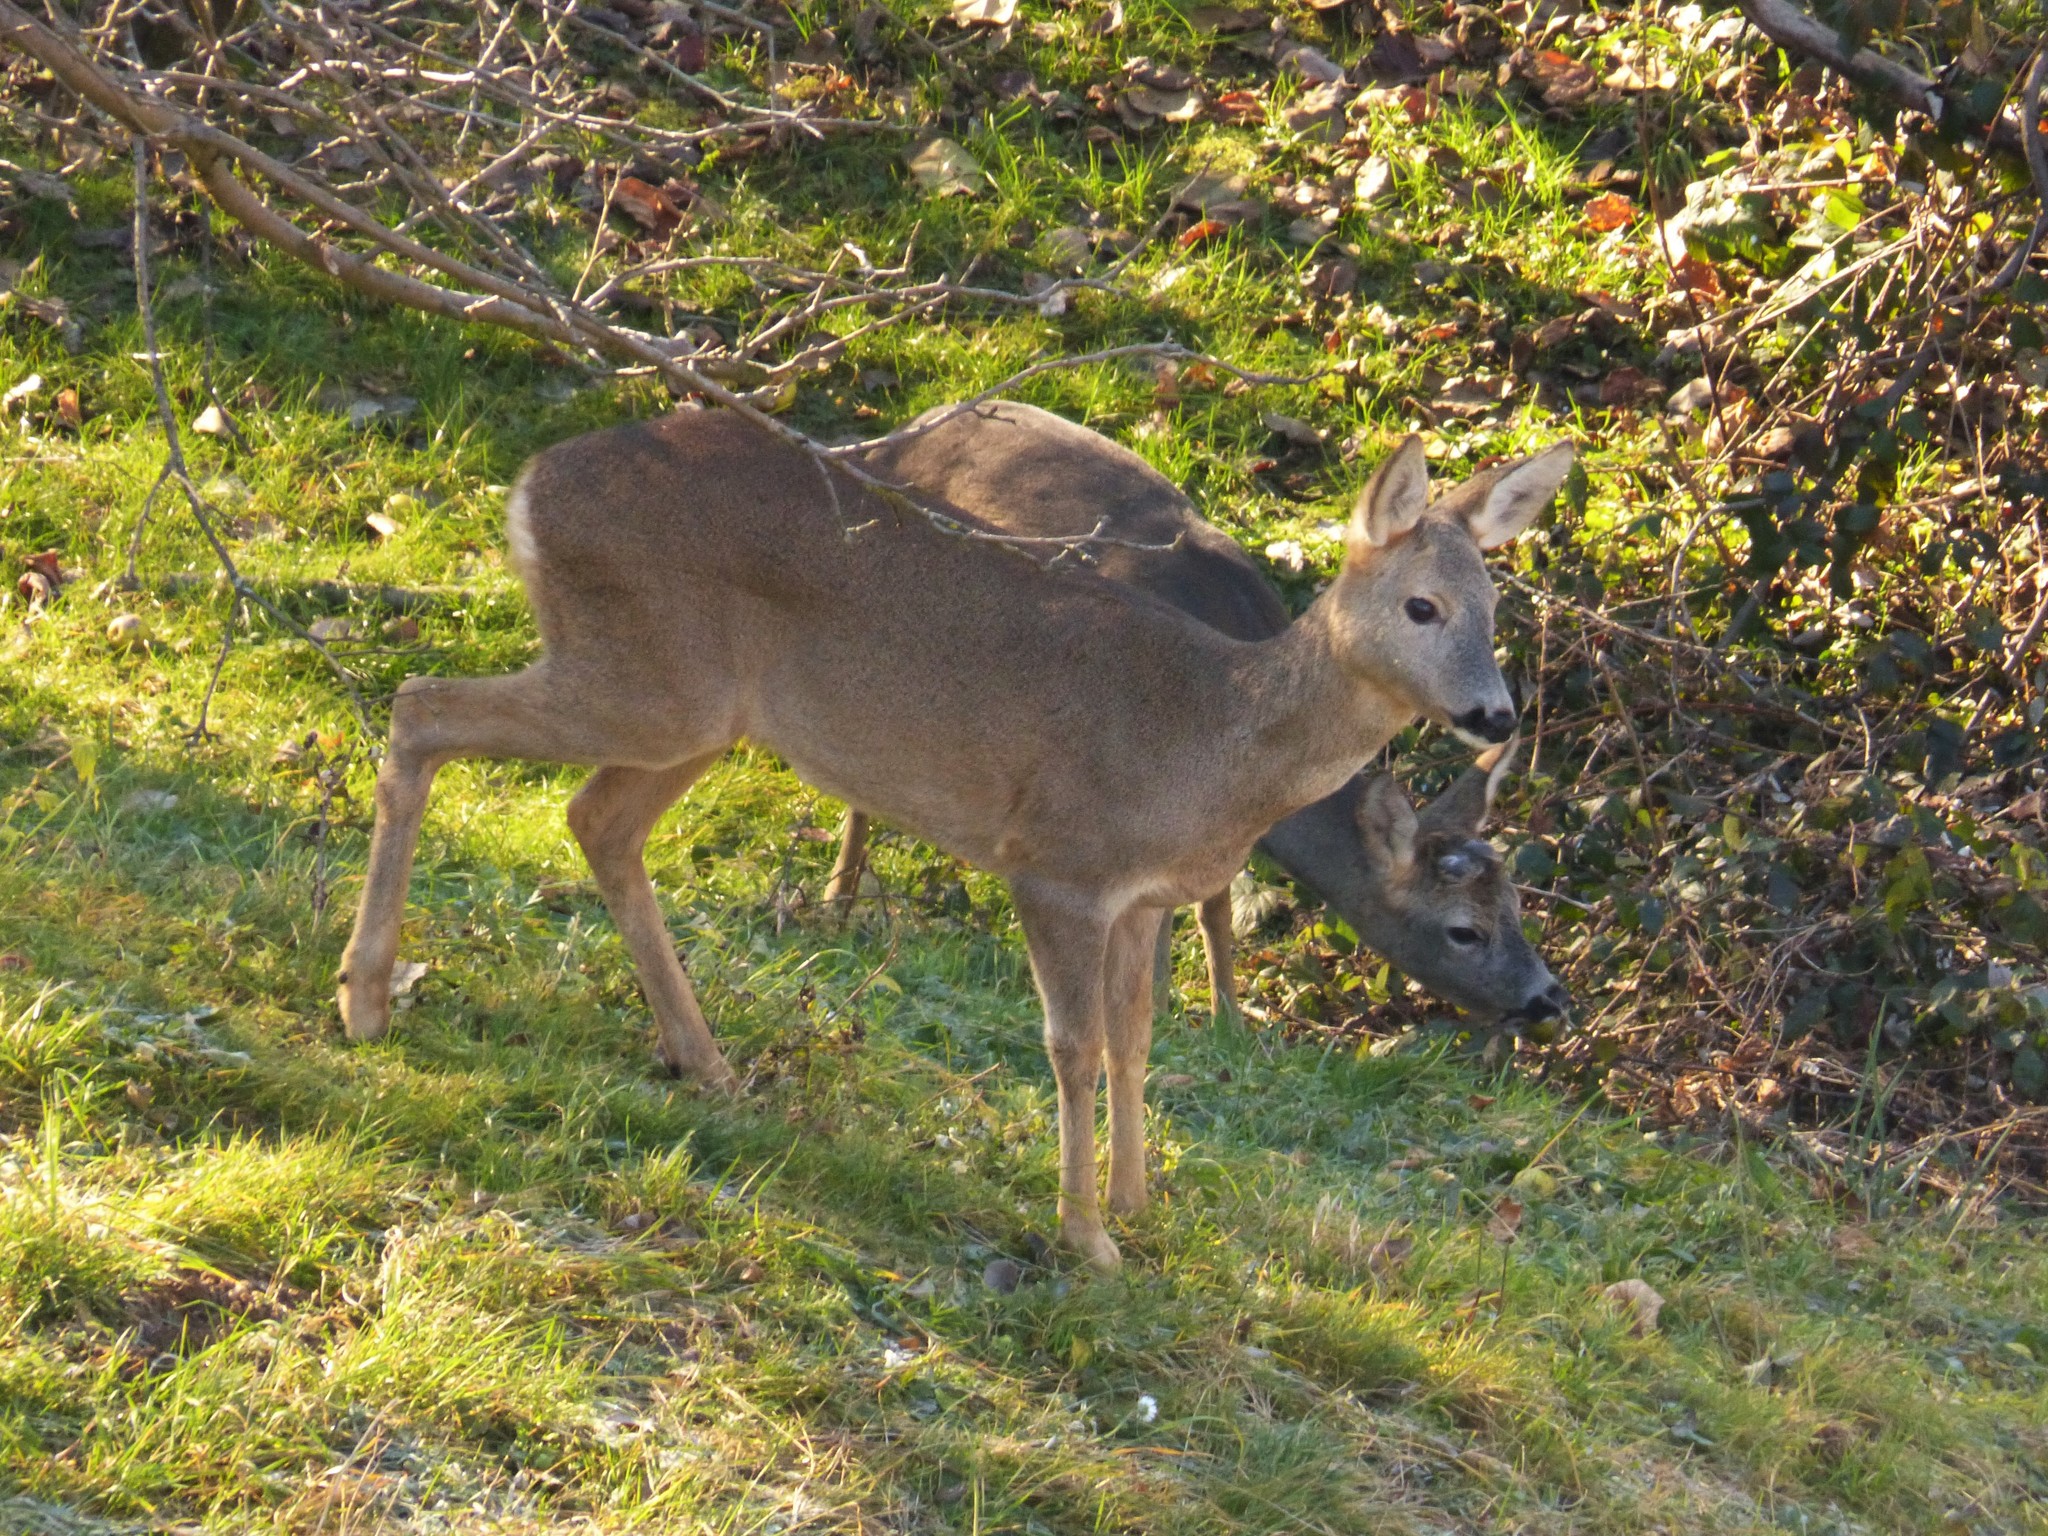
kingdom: Animalia
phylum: Chordata
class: Mammalia
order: Artiodactyla
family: Cervidae
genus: Capreolus
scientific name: Capreolus capreolus
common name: Western roe deer
